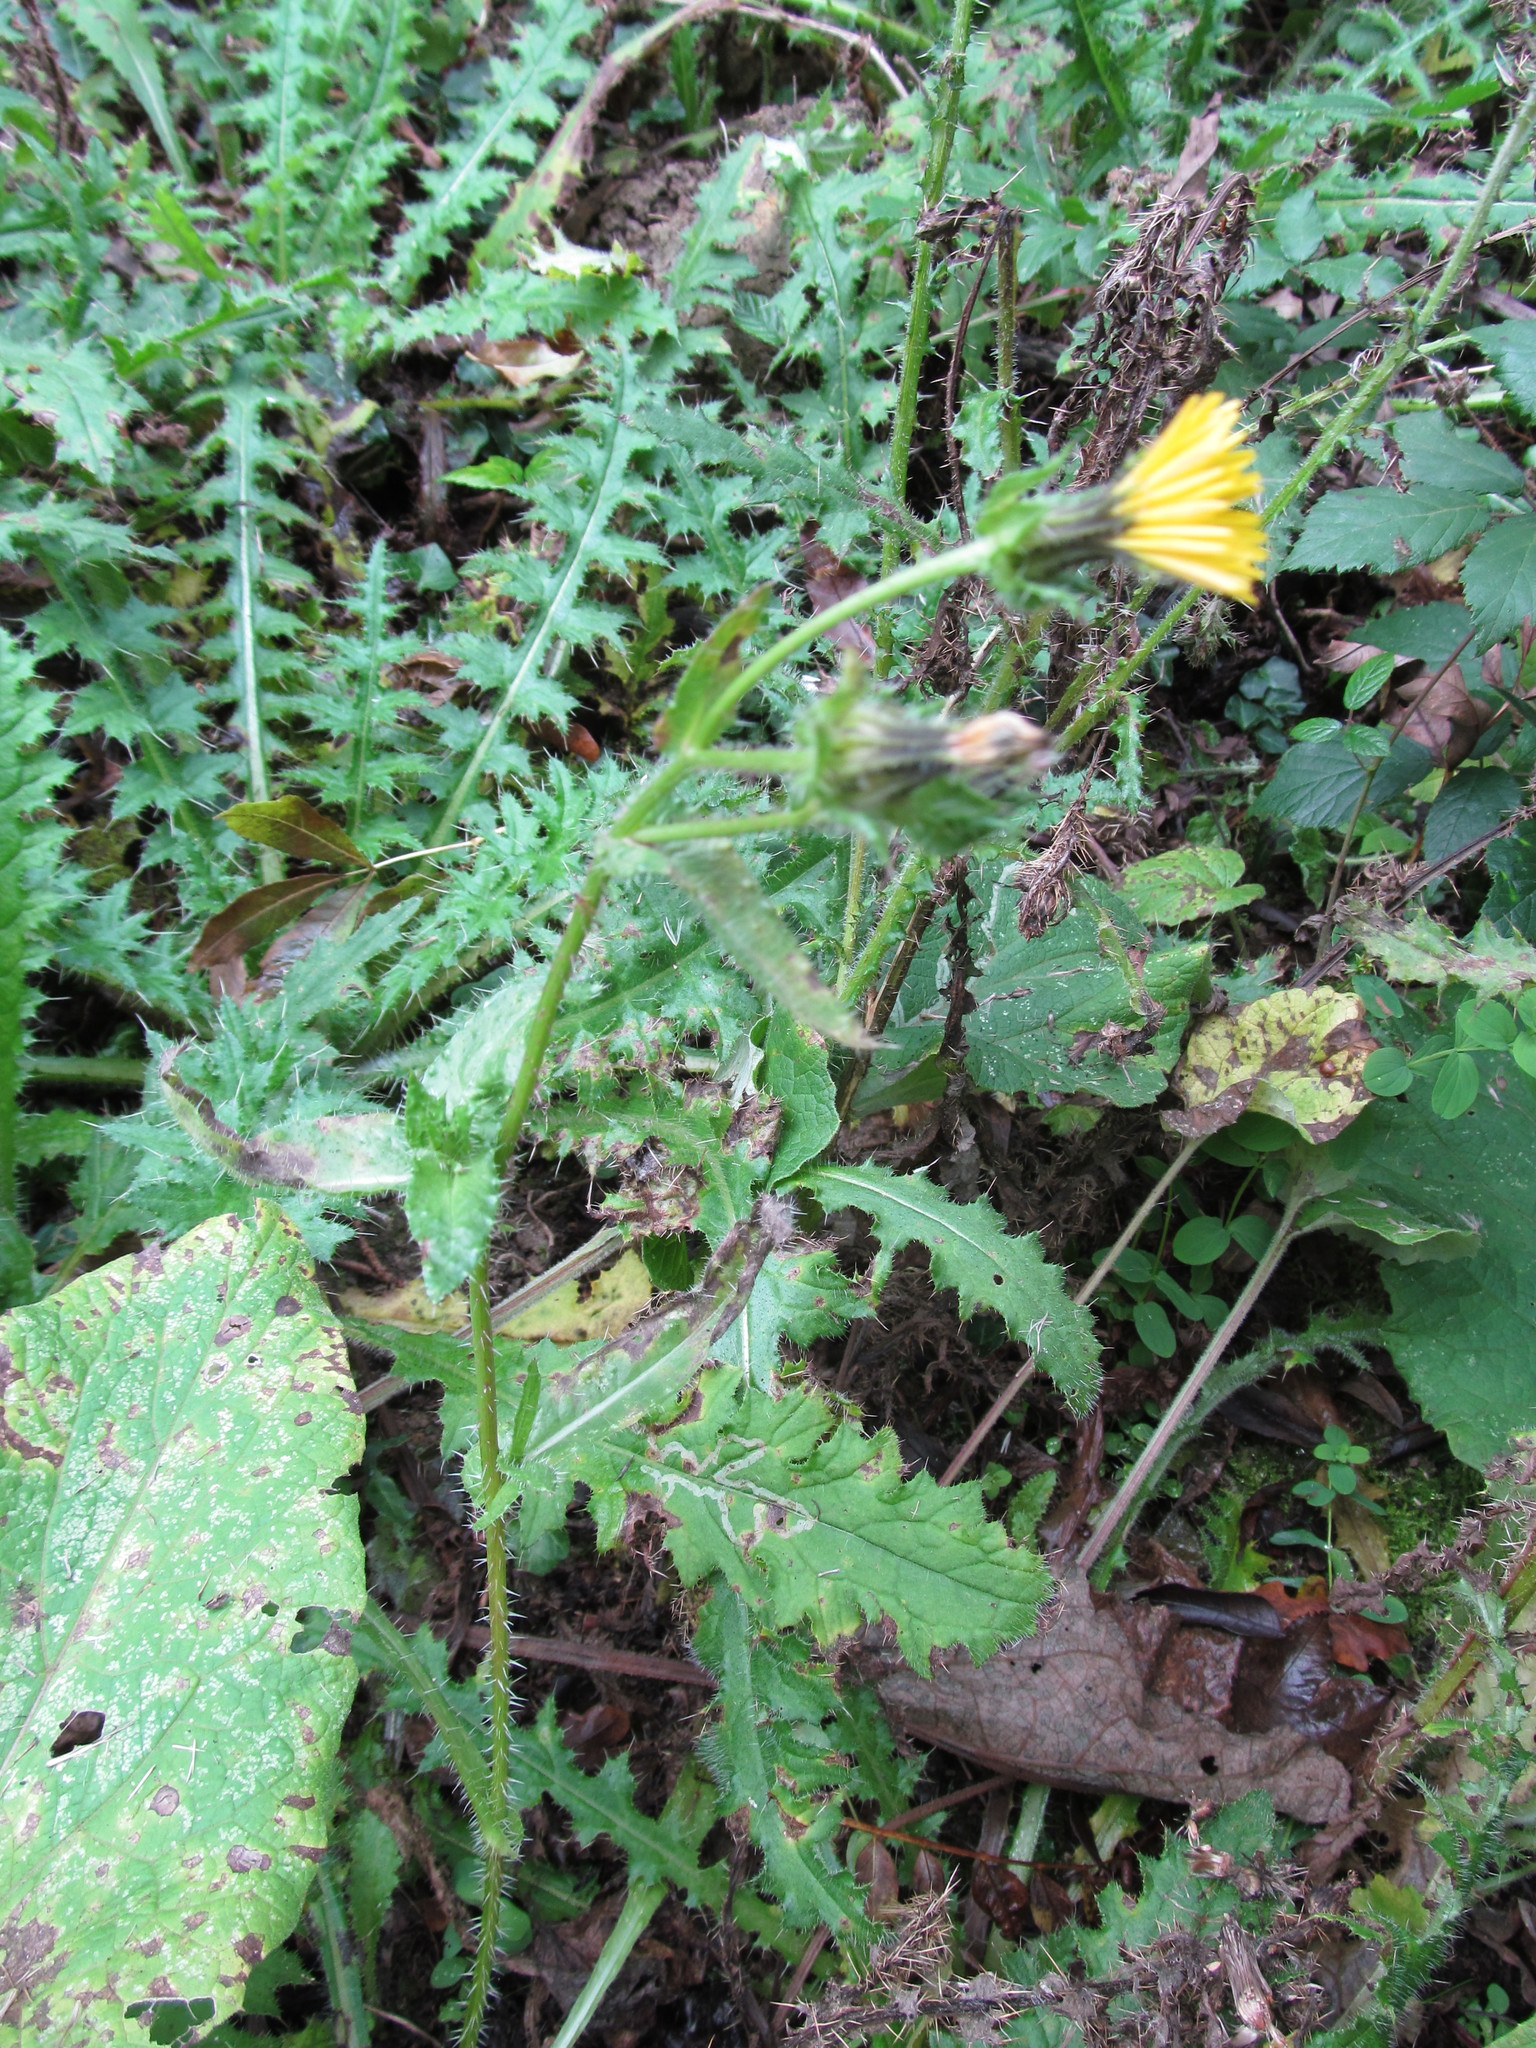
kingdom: Plantae
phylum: Tracheophyta
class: Magnoliopsida
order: Asterales
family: Asteraceae
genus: Helminthotheca
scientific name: Helminthotheca echioides
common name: Ox-tongue
